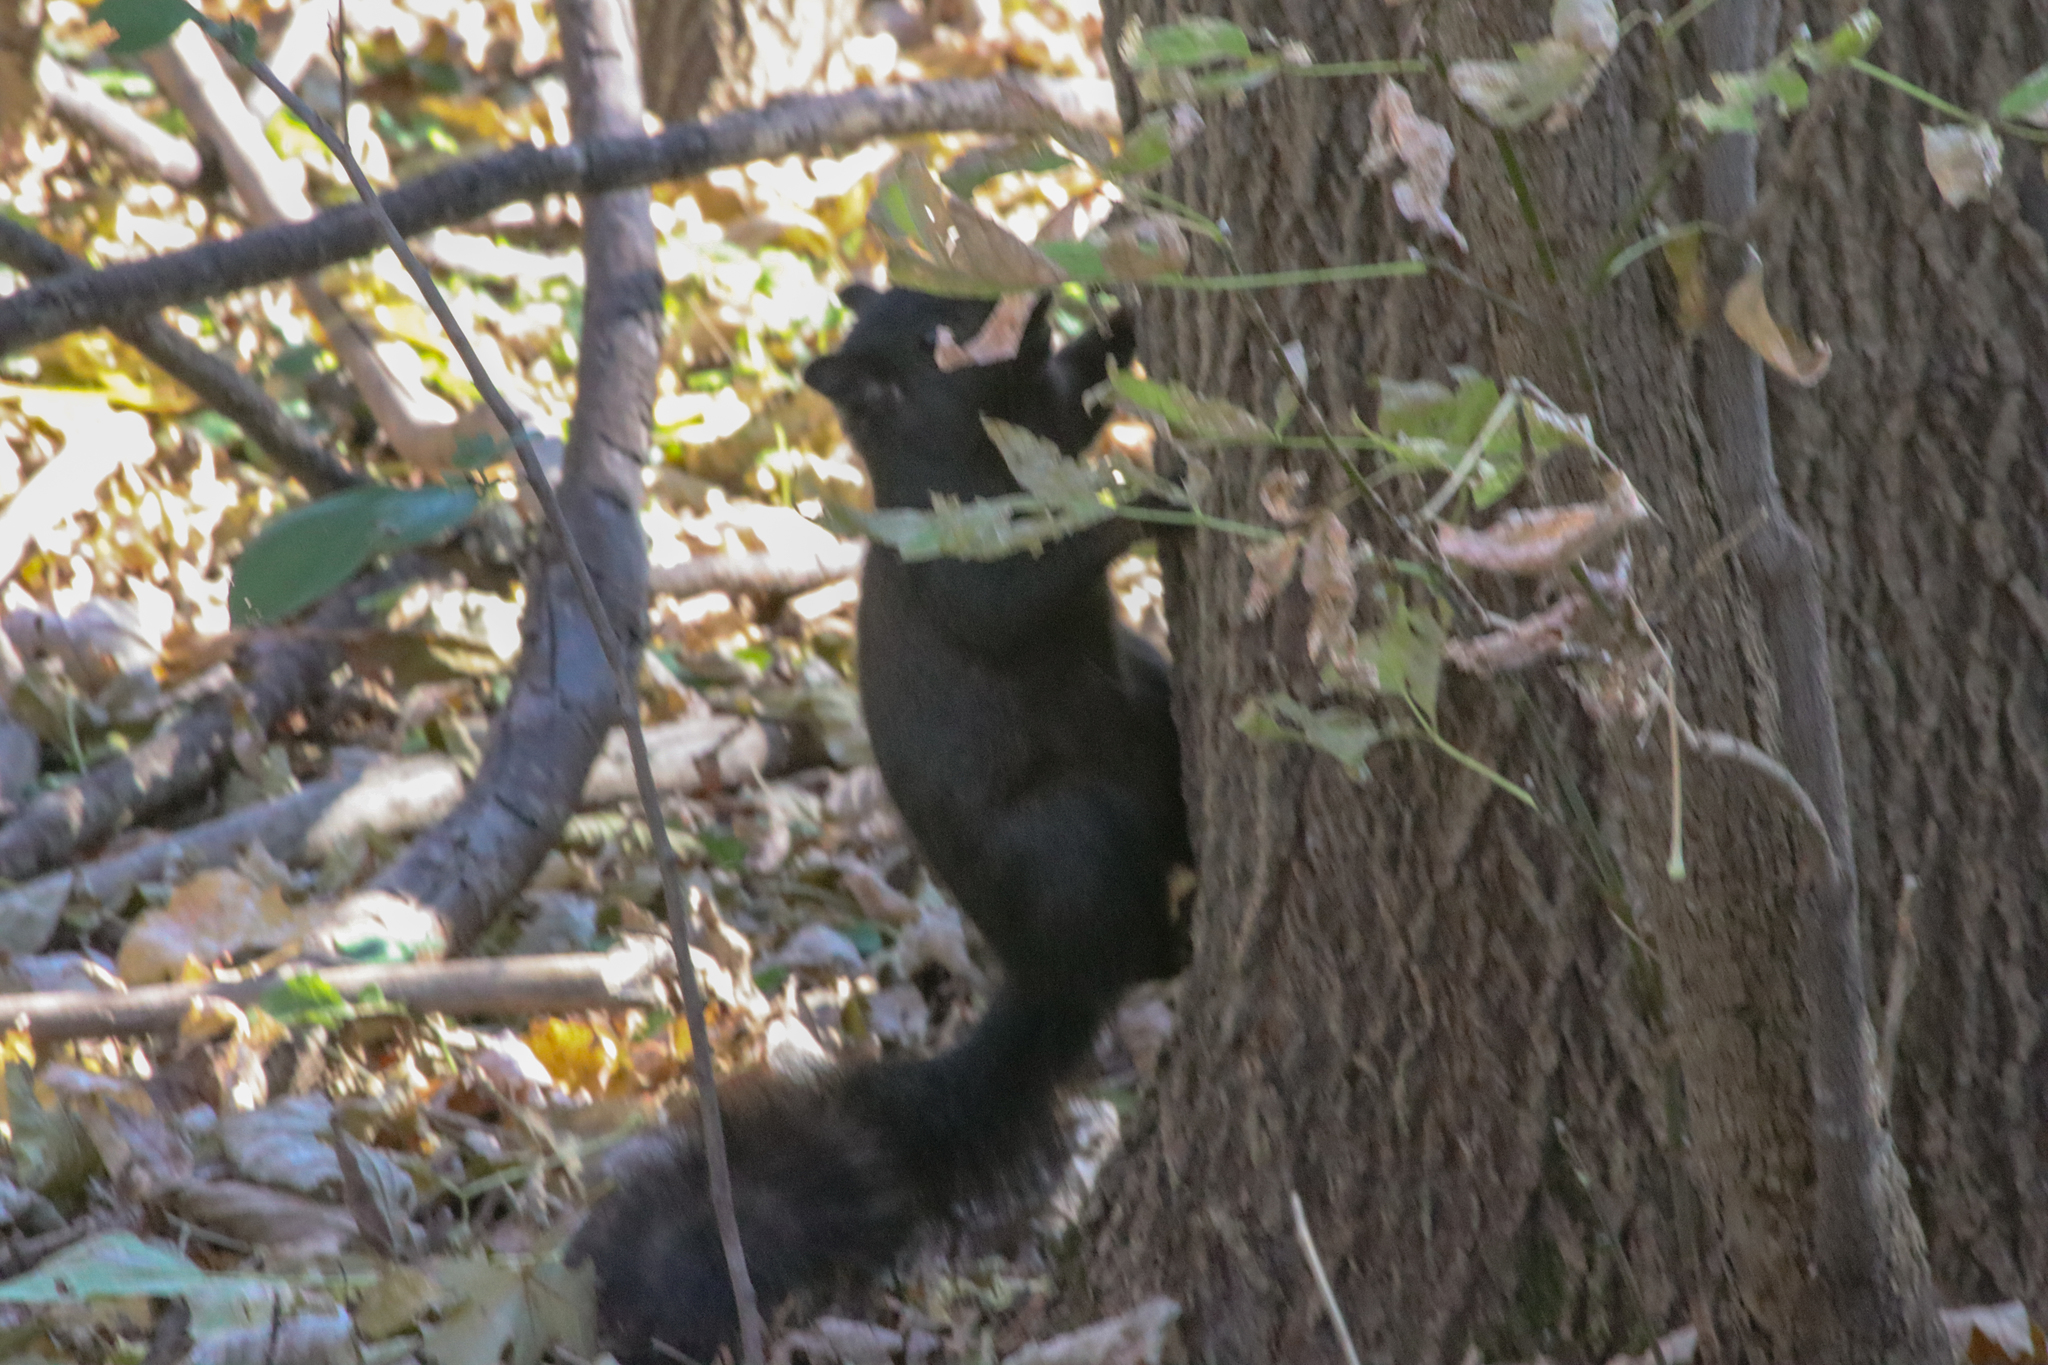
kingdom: Animalia
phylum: Chordata
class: Mammalia
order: Rodentia
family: Sciuridae
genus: Sciurus
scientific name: Sciurus carolinensis
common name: Eastern gray squirrel
